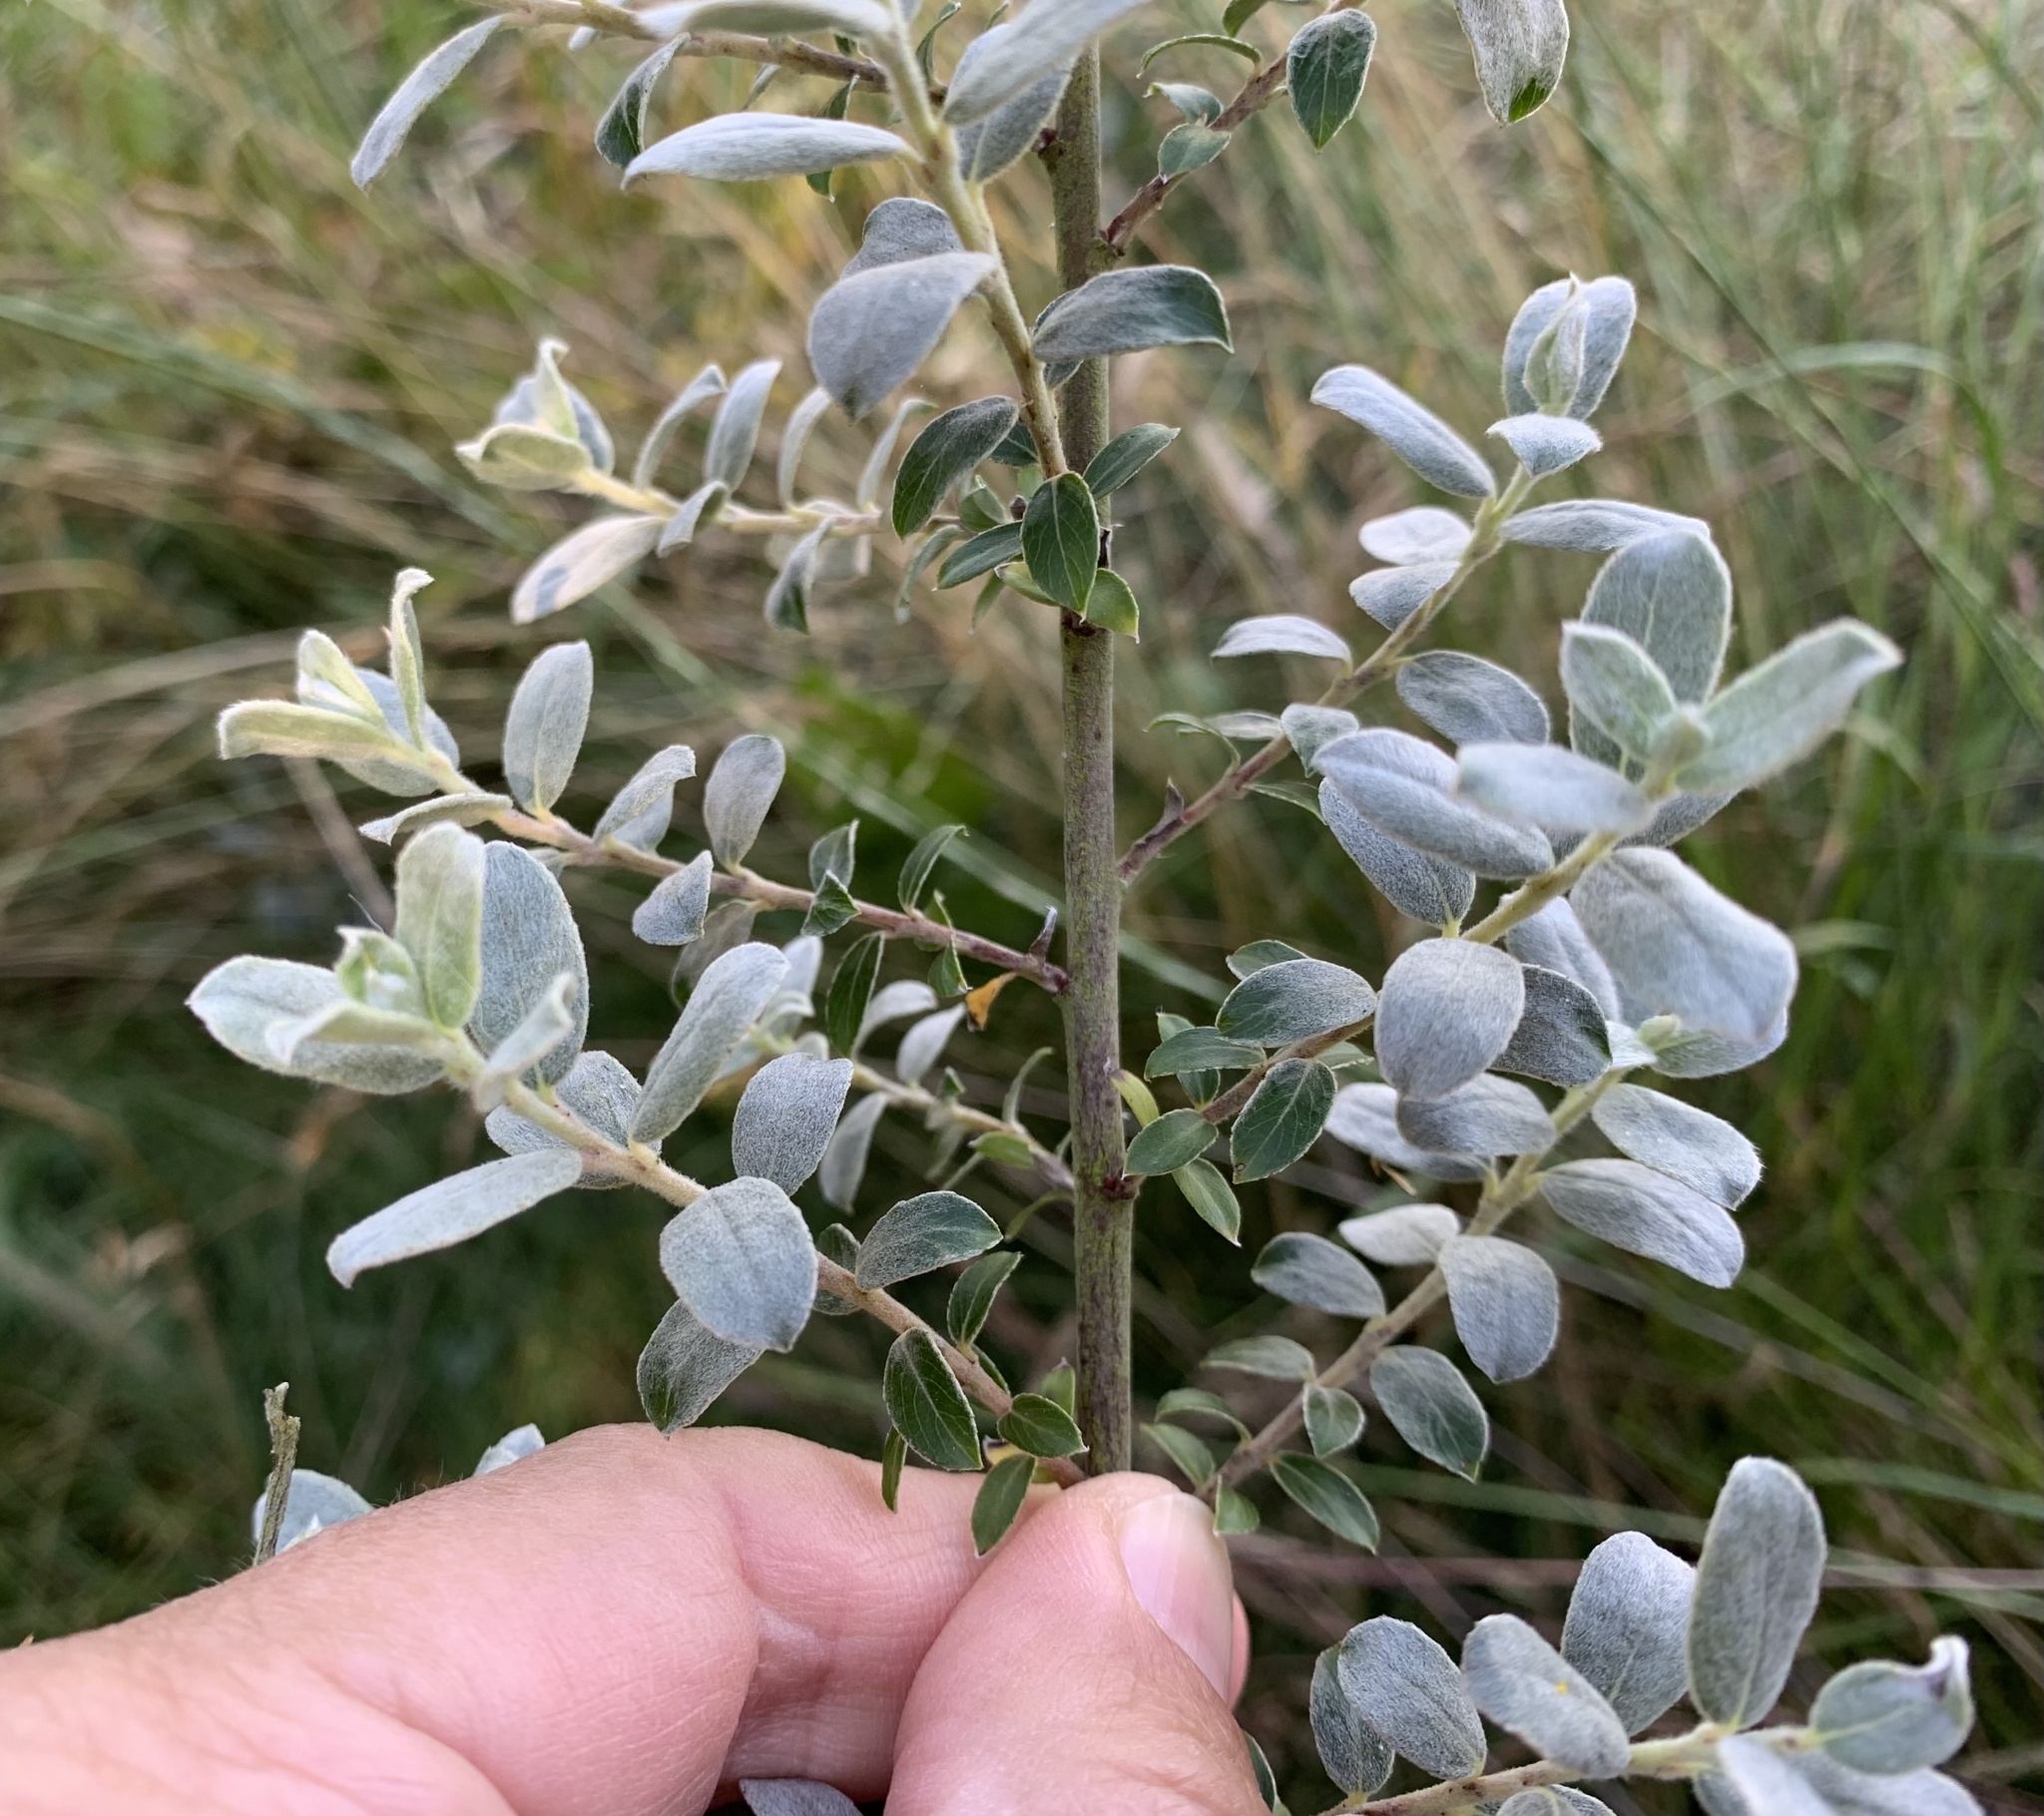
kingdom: Plantae
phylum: Tracheophyta
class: Magnoliopsida
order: Malpighiales
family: Salicaceae
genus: Salix
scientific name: Salix repens
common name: Creeping willow
